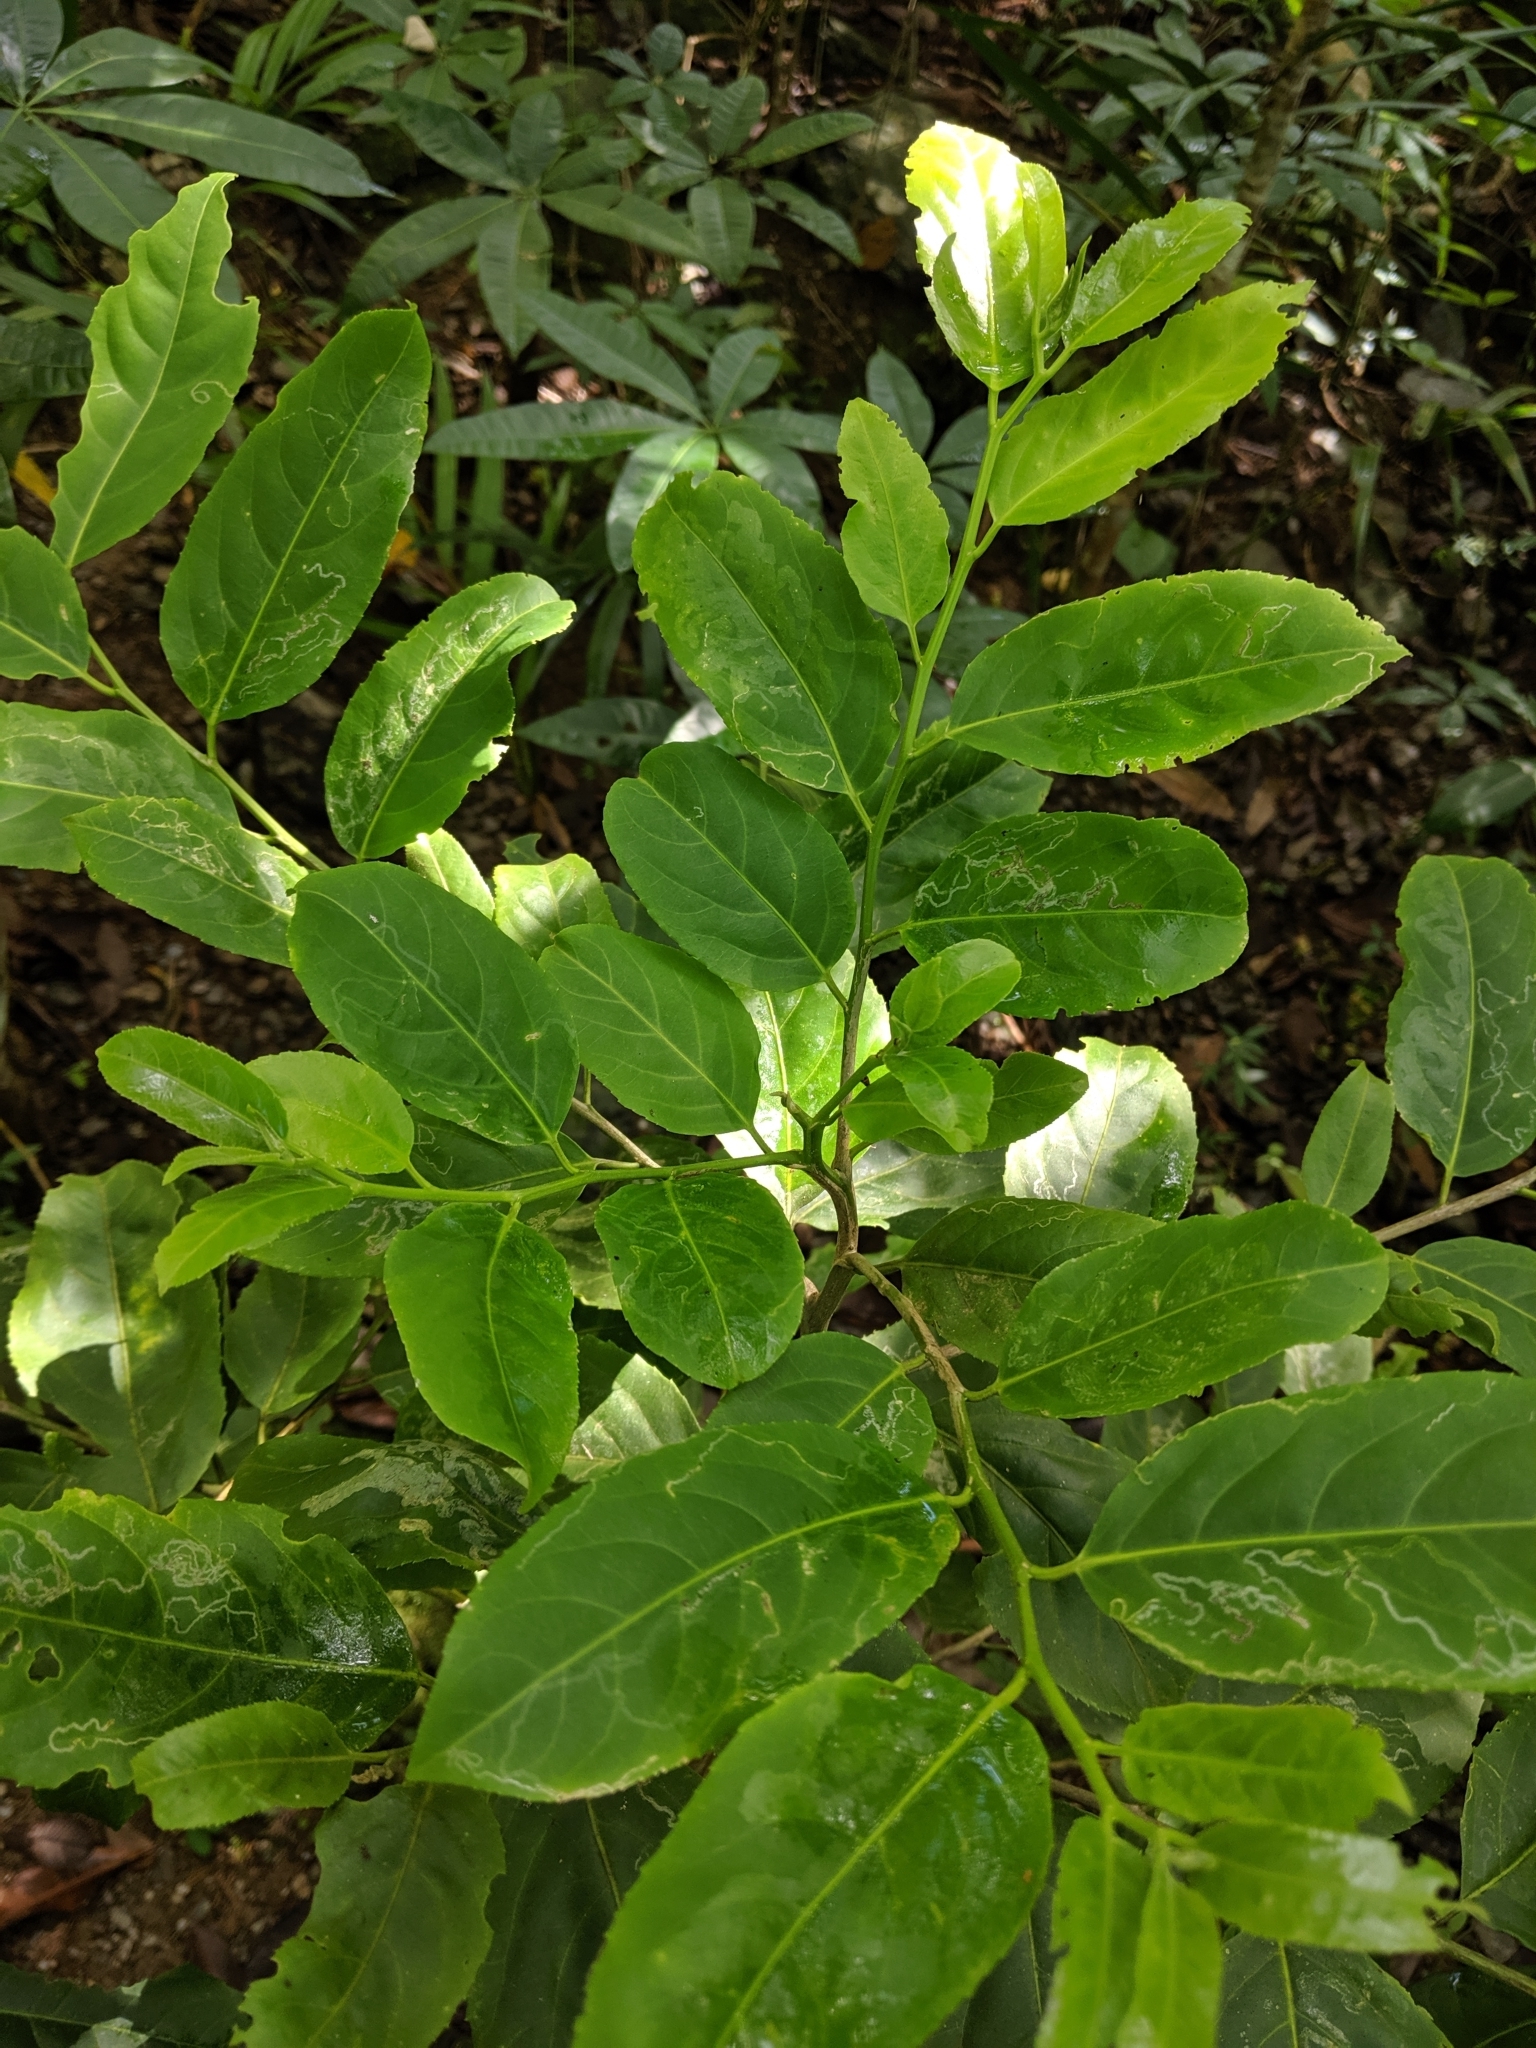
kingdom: Plantae
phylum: Tracheophyta
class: Magnoliopsida
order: Malpighiales
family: Salicaceae
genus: Casearia
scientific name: Casearia membranacea
